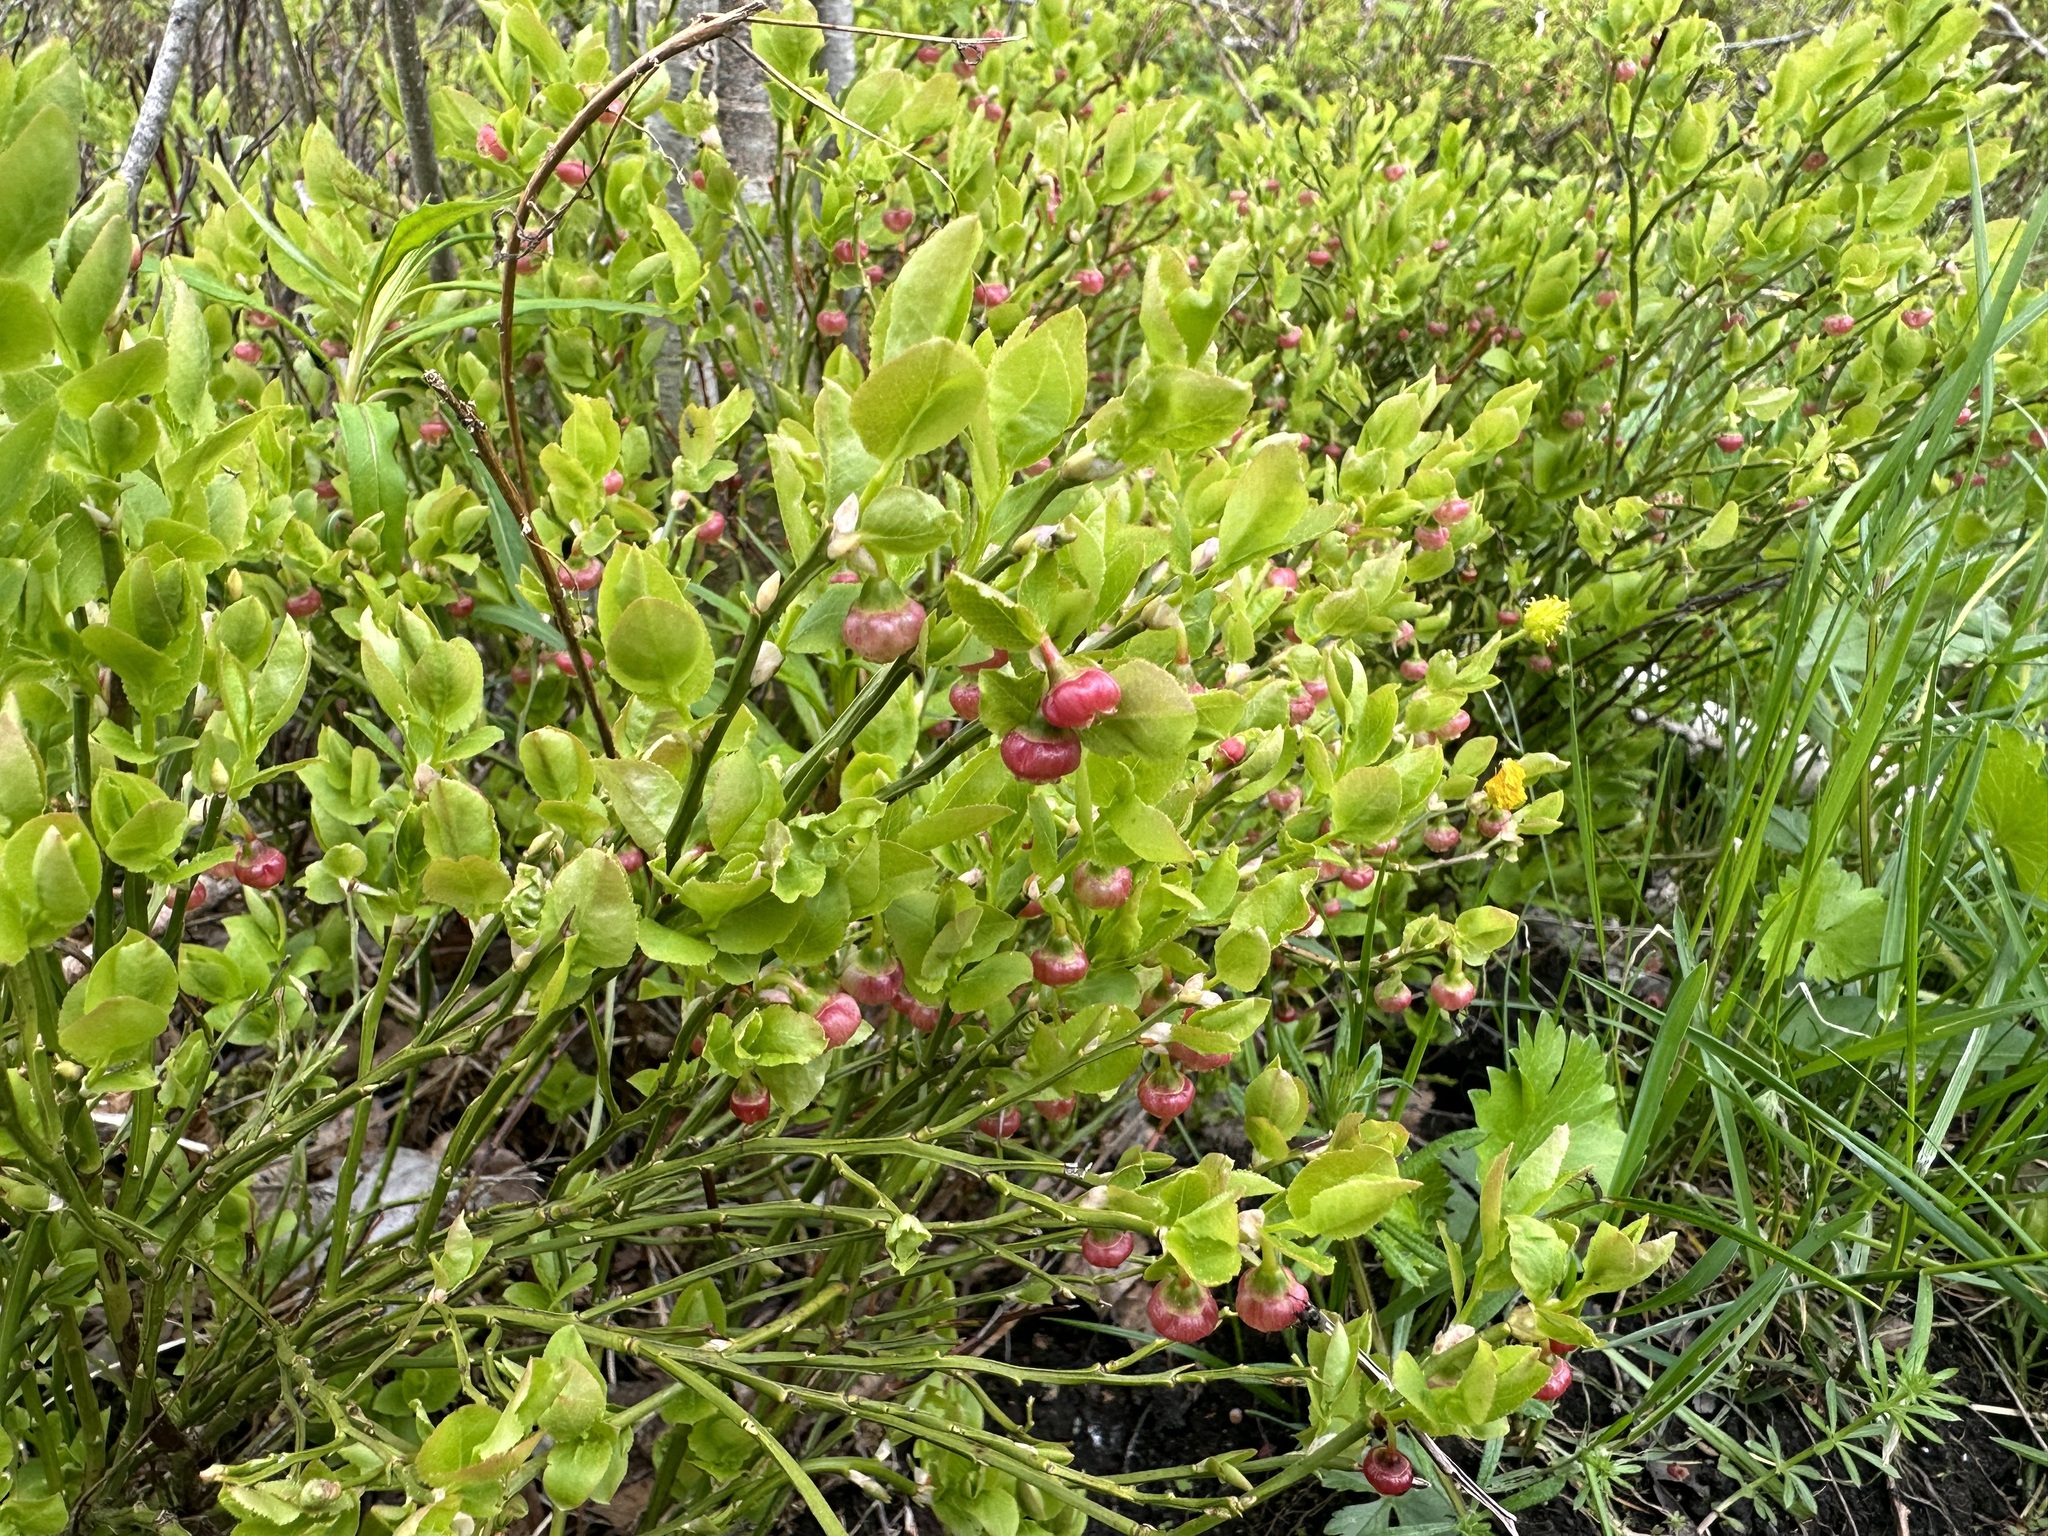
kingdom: Plantae
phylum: Tracheophyta
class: Magnoliopsida
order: Ericales
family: Ericaceae
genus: Vaccinium
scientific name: Vaccinium myrtillus
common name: Bilberry
